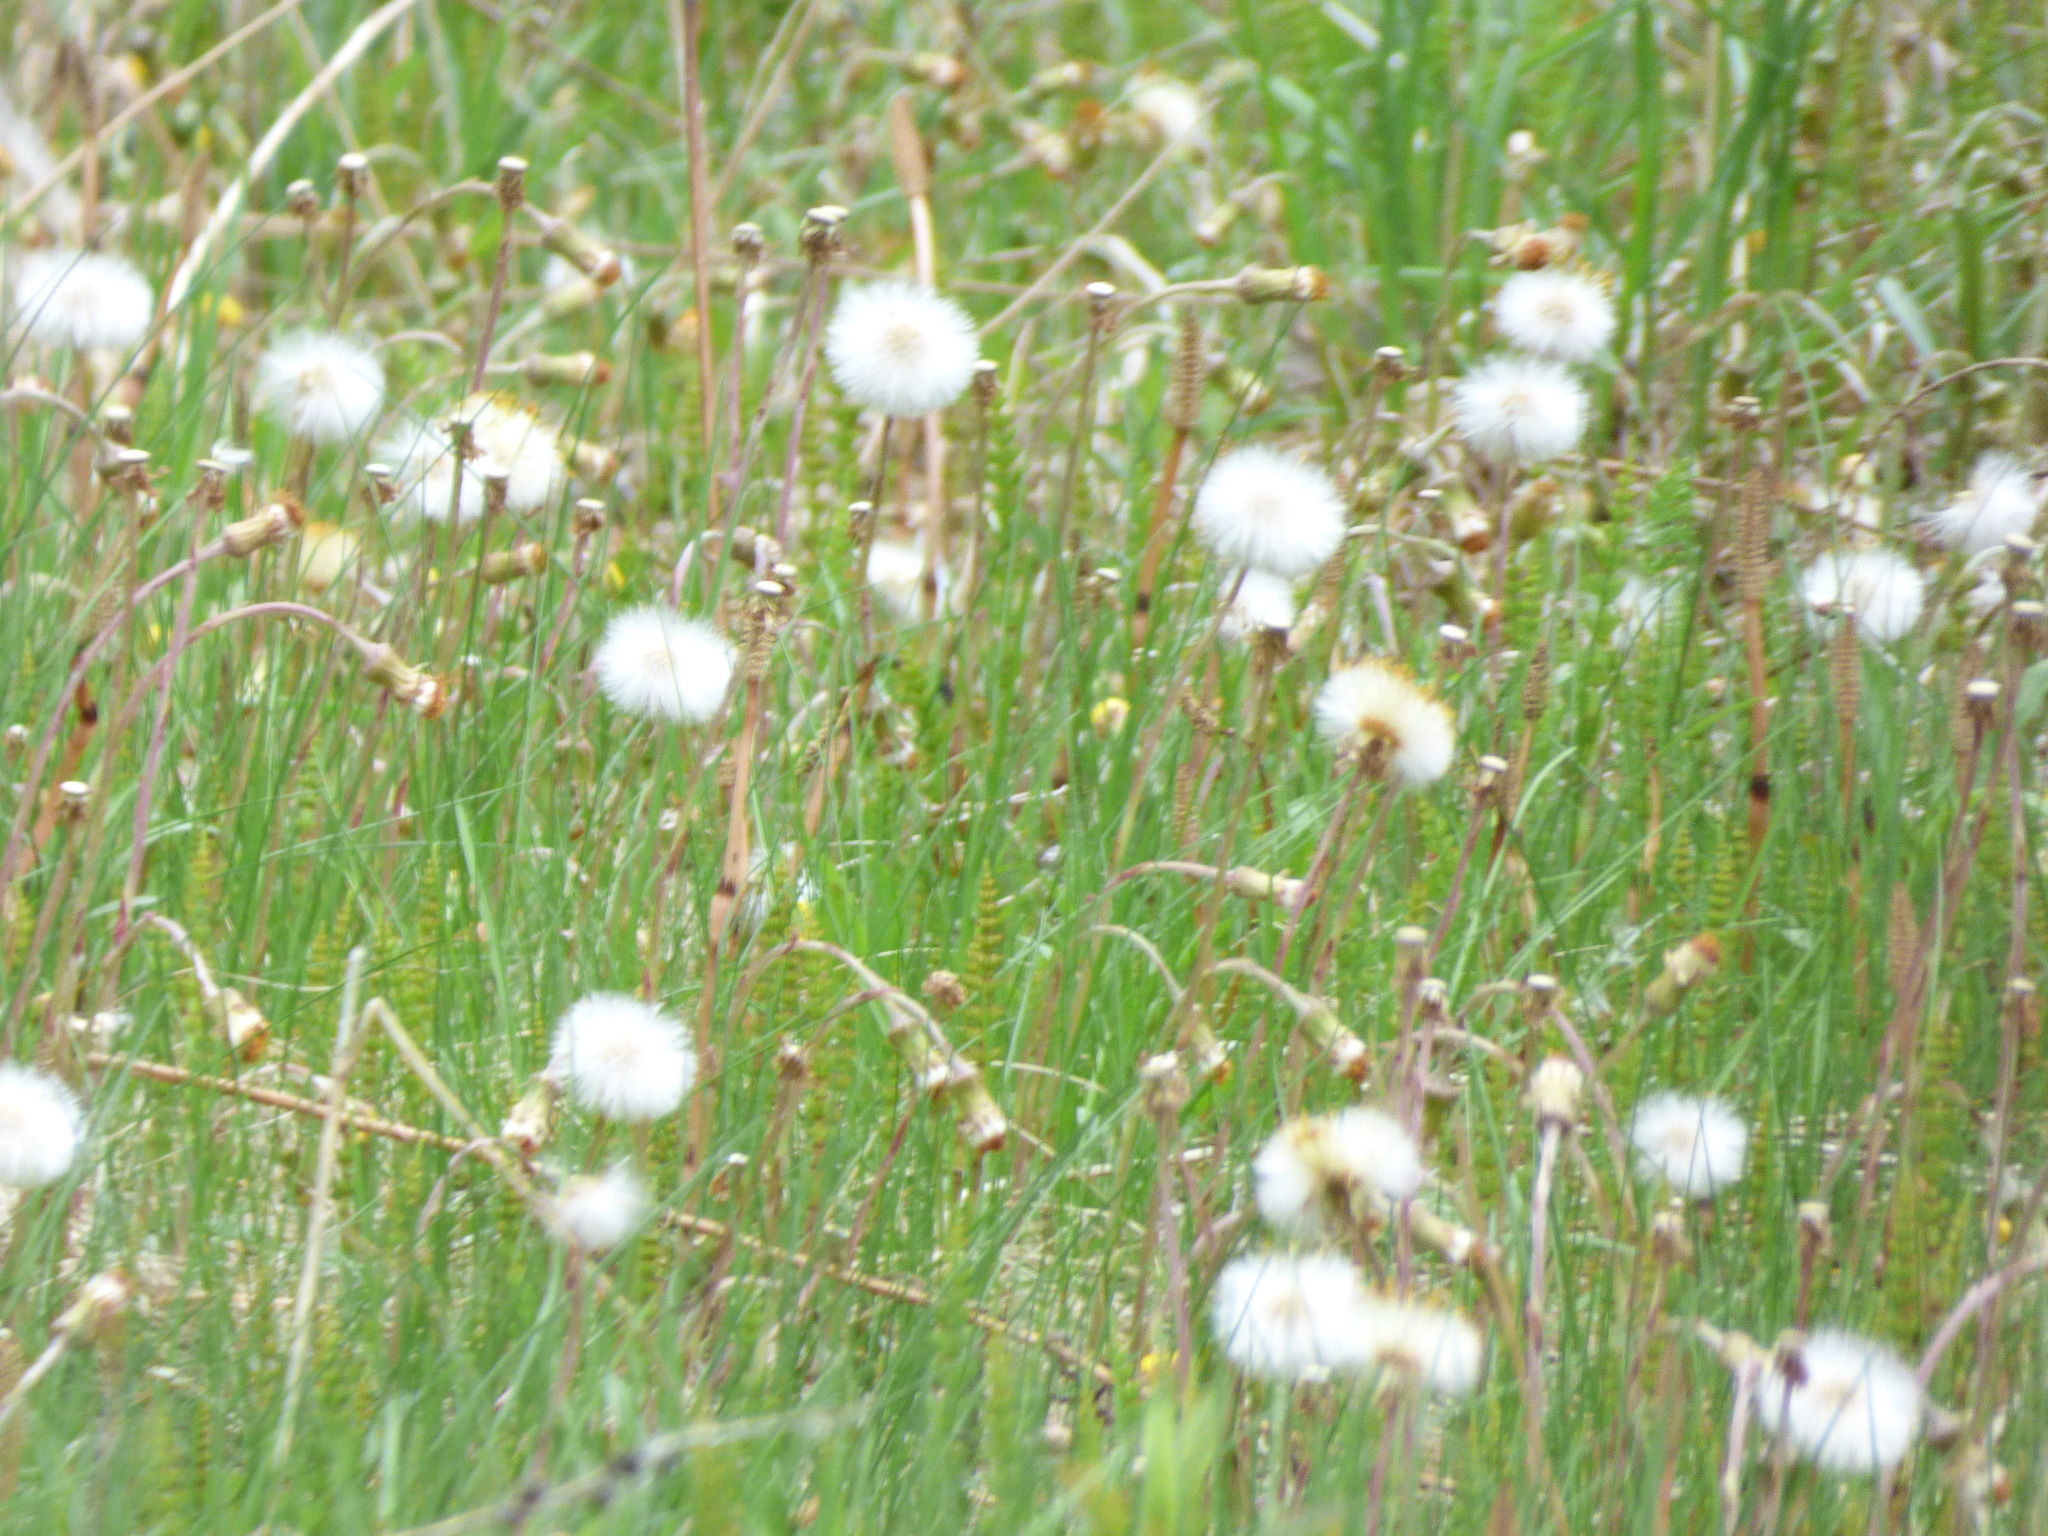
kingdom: Plantae
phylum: Tracheophyta
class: Magnoliopsida
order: Asterales
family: Asteraceae
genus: Tussilago
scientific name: Tussilago farfara
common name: Coltsfoot
